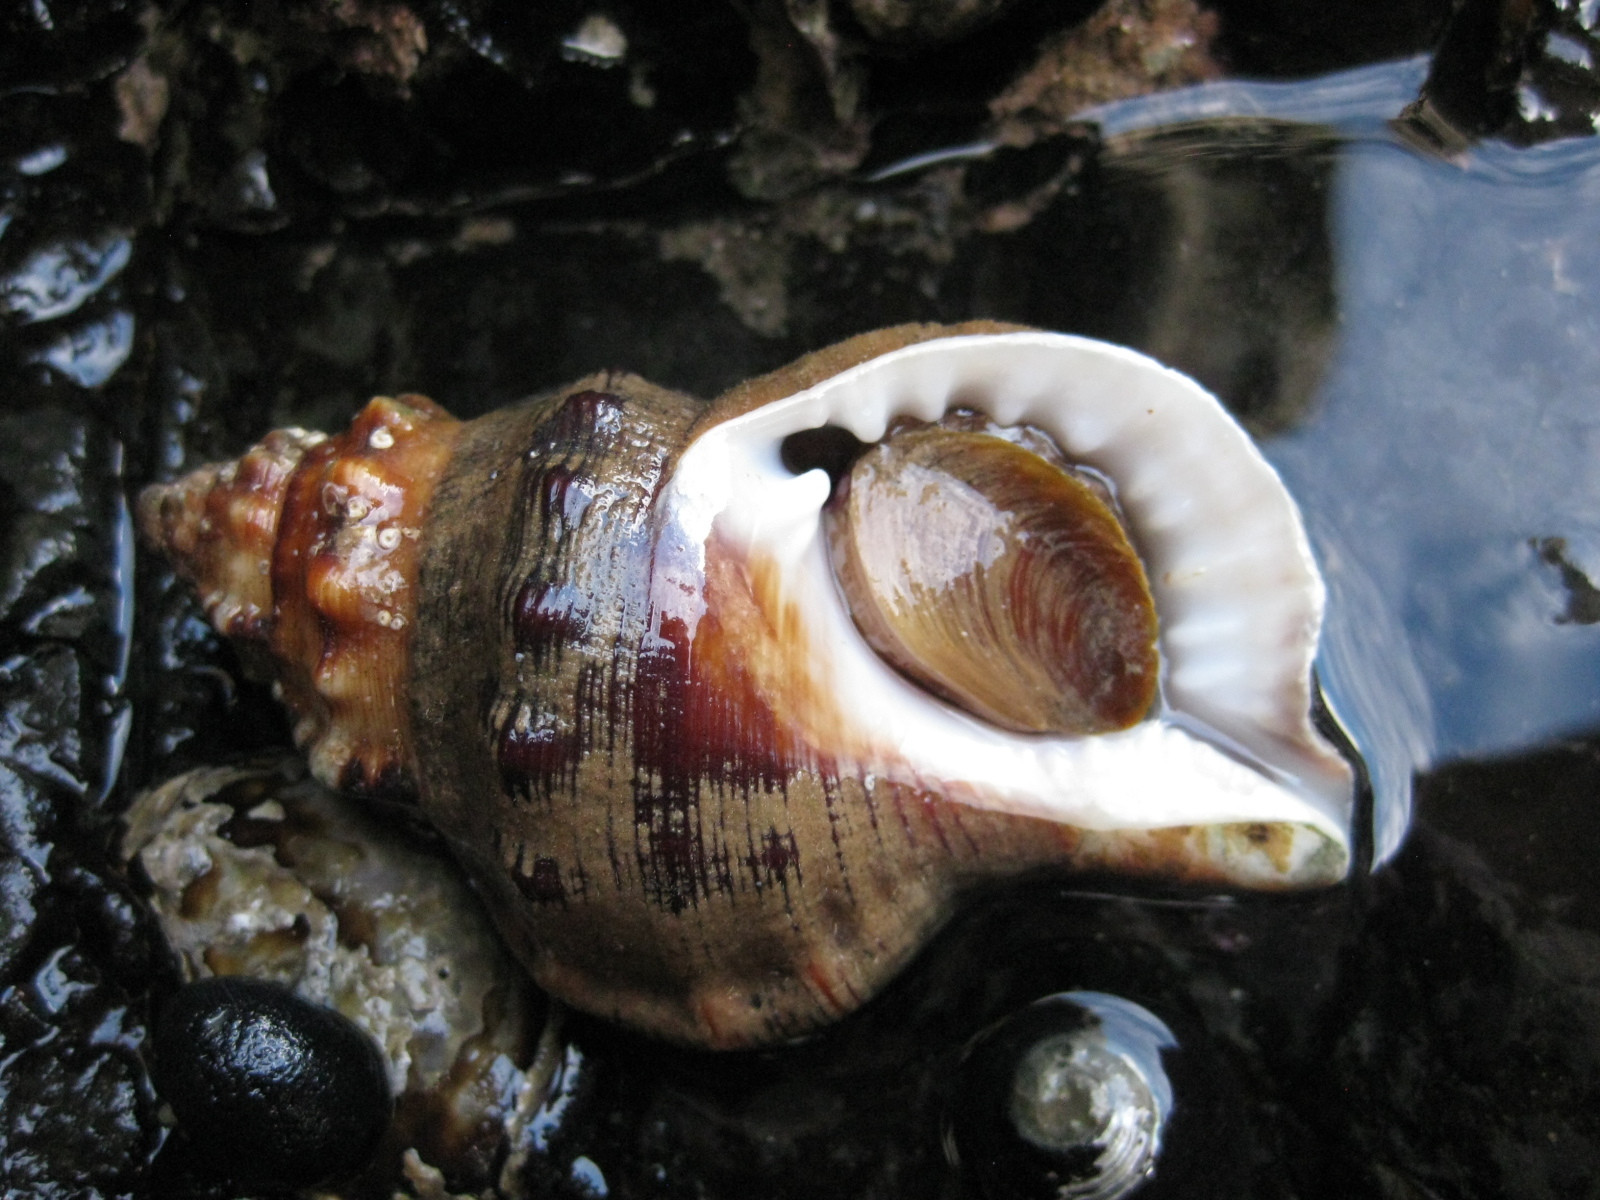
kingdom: Animalia
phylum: Mollusca
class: Gastropoda
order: Littorinimorpha
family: Ranellidae
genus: Ranella
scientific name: Ranella australasia
